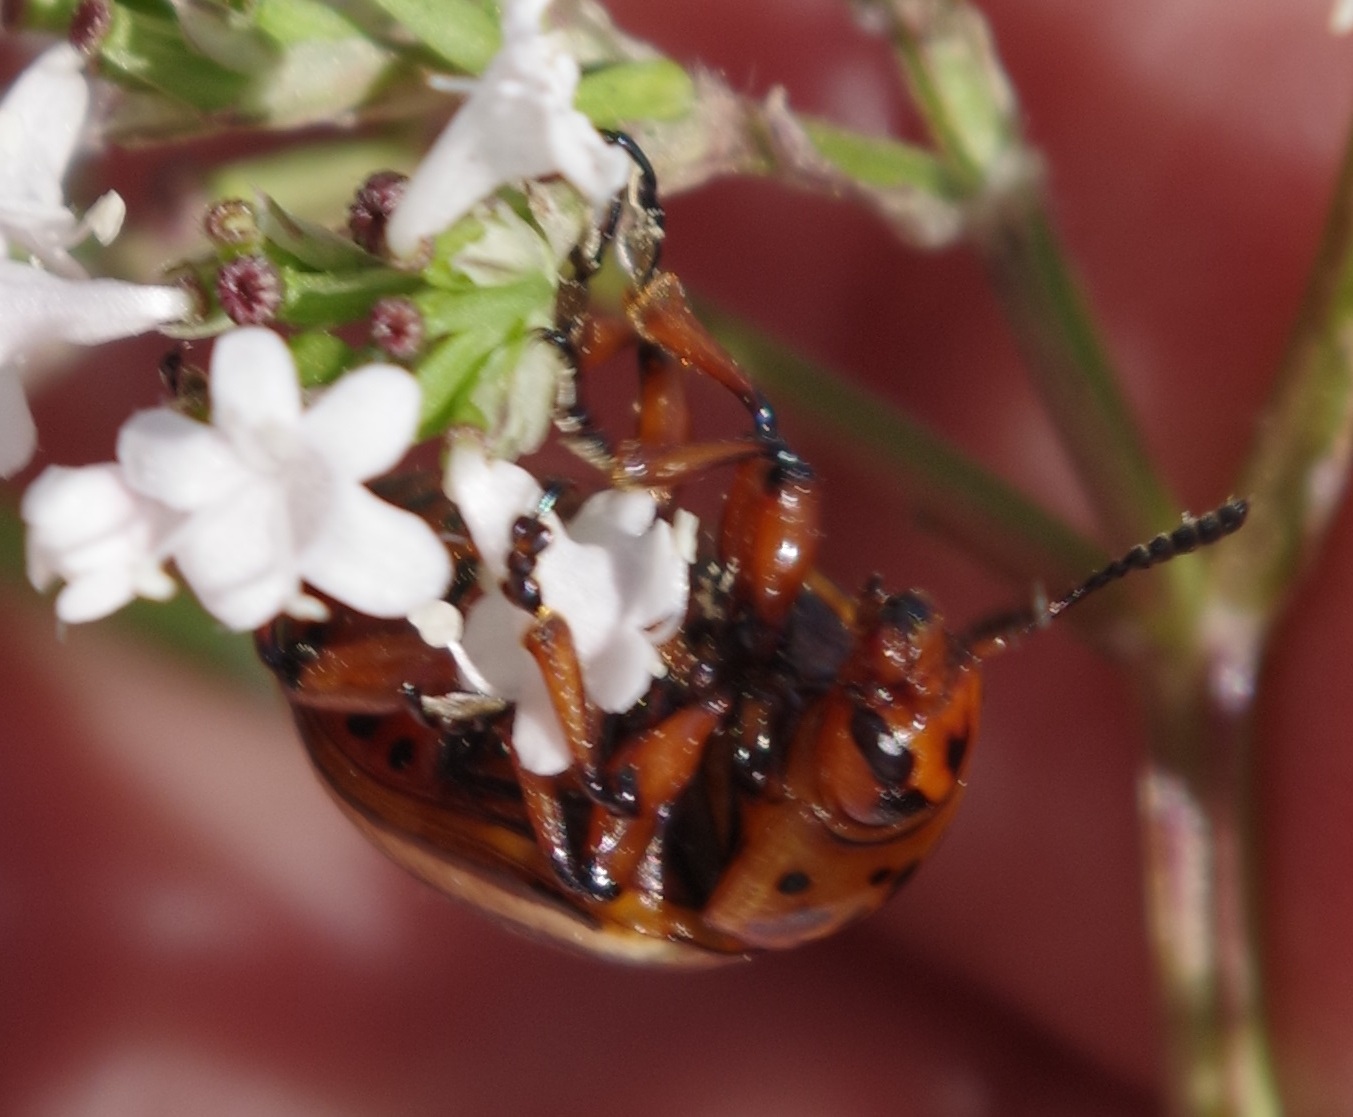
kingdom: Animalia
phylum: Arthropoda
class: Insecta
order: Coleoptera
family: Chrysomelidae
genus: Leptinotarsa
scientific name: Leptinotarsa decemlineata
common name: Colorado potato beetle
